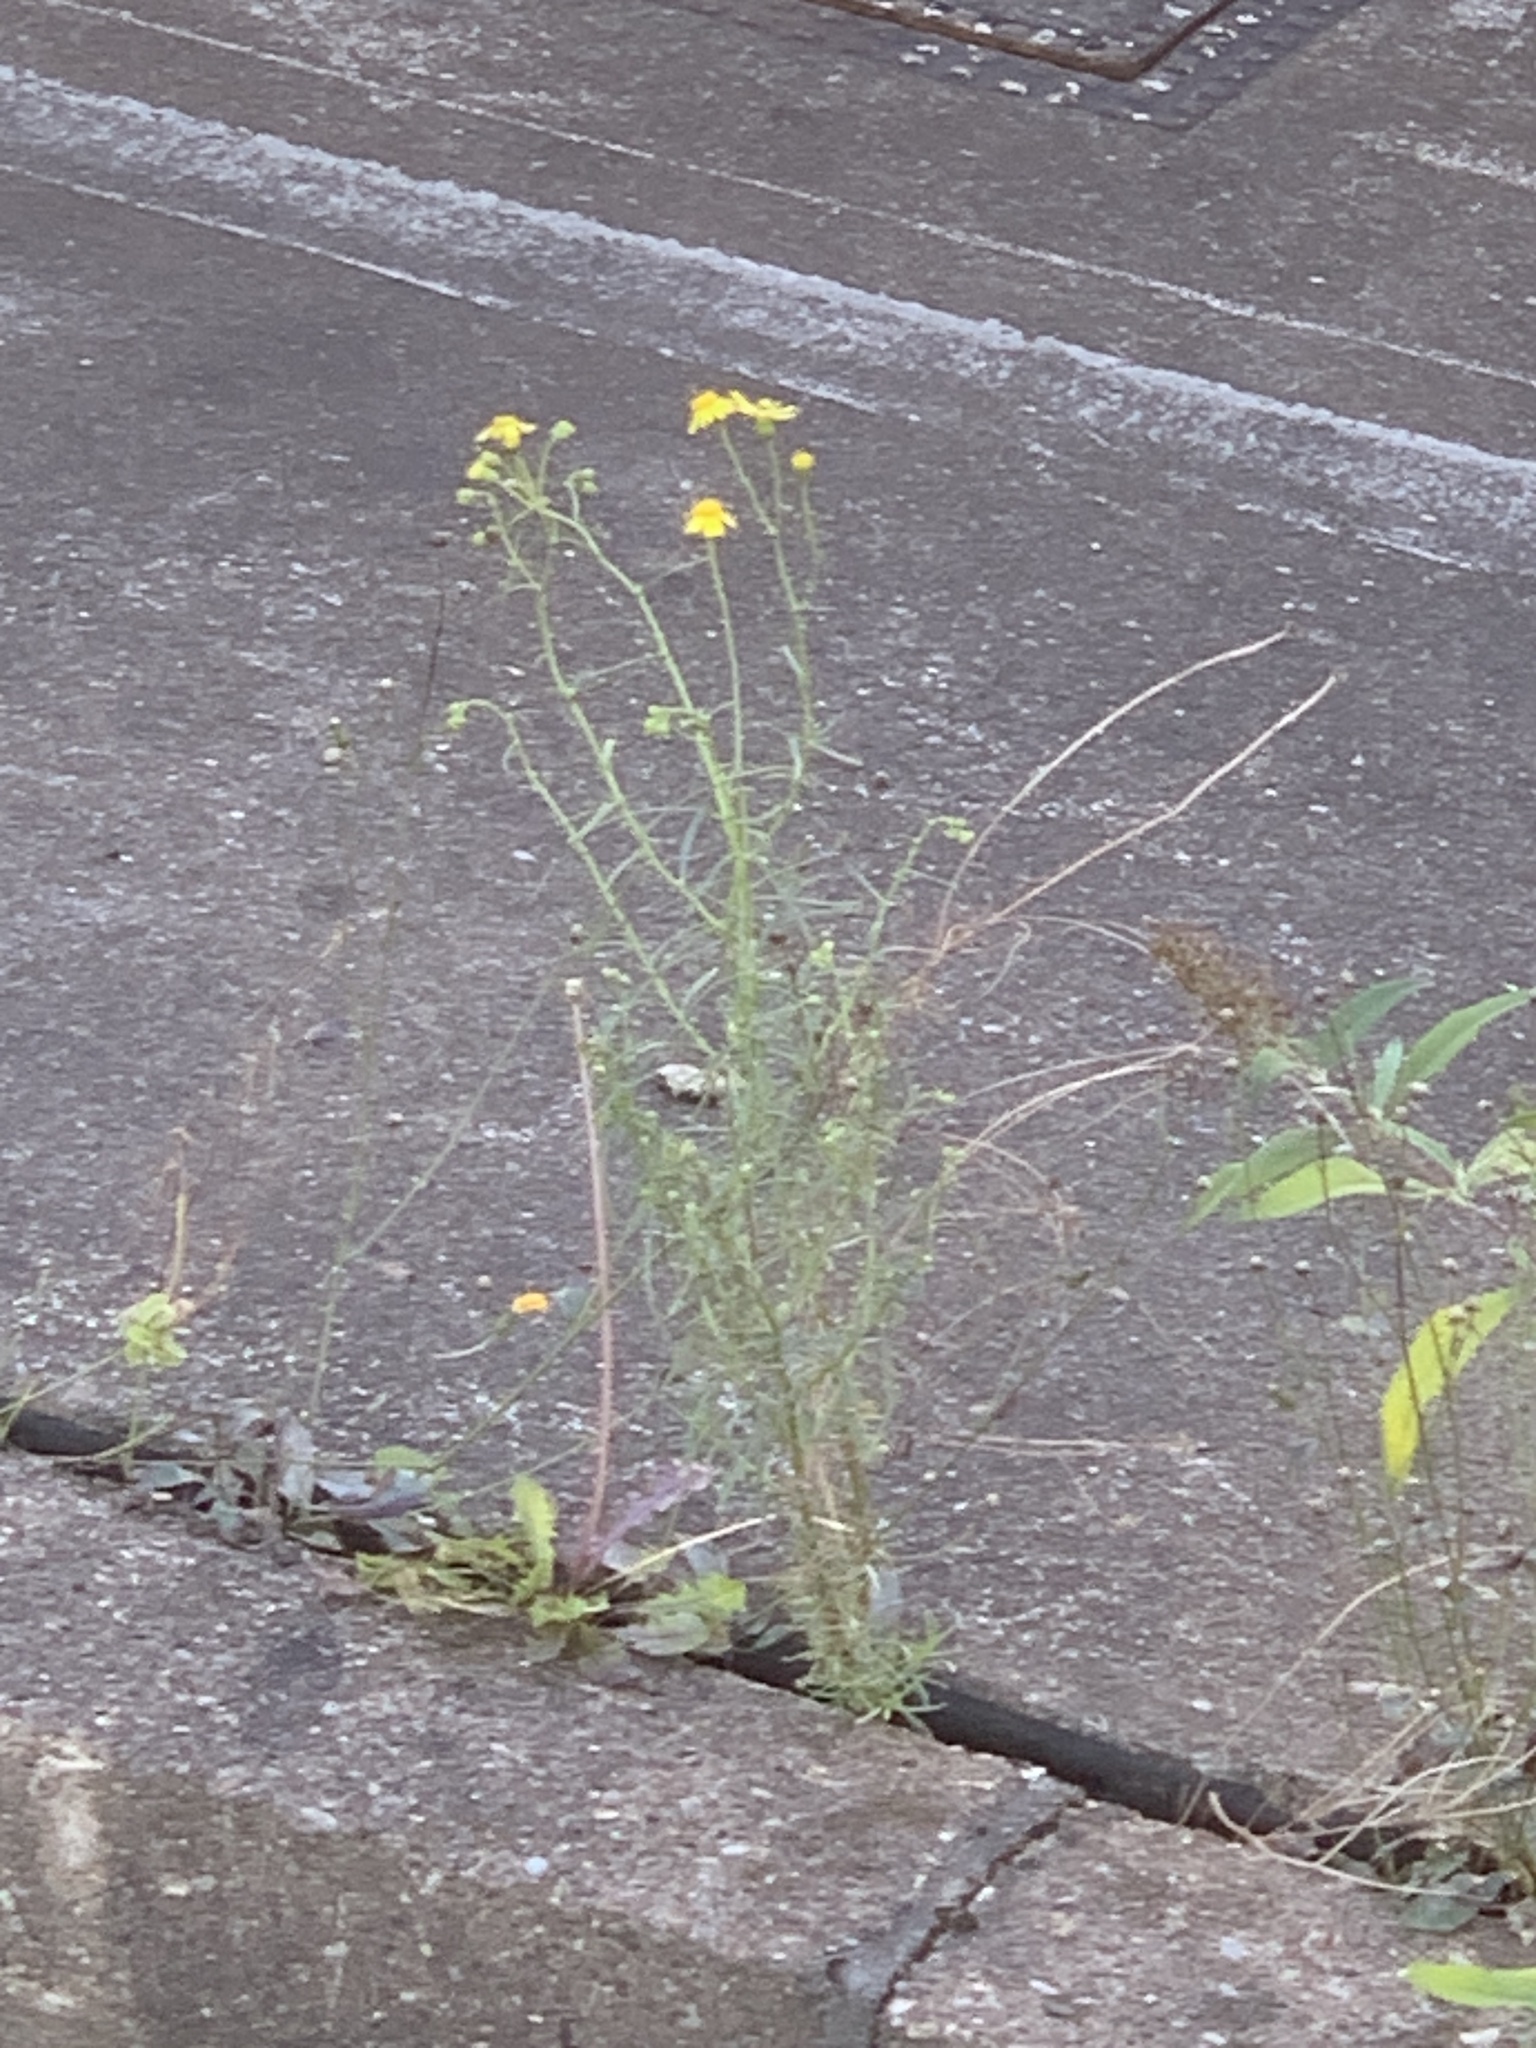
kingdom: Plantae
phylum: Tracheophyta
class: Magnoliopsida
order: Asterales
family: Asteraceae
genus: Senecio
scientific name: Senecio inaequidens
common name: Narrow-leaved ragwort
